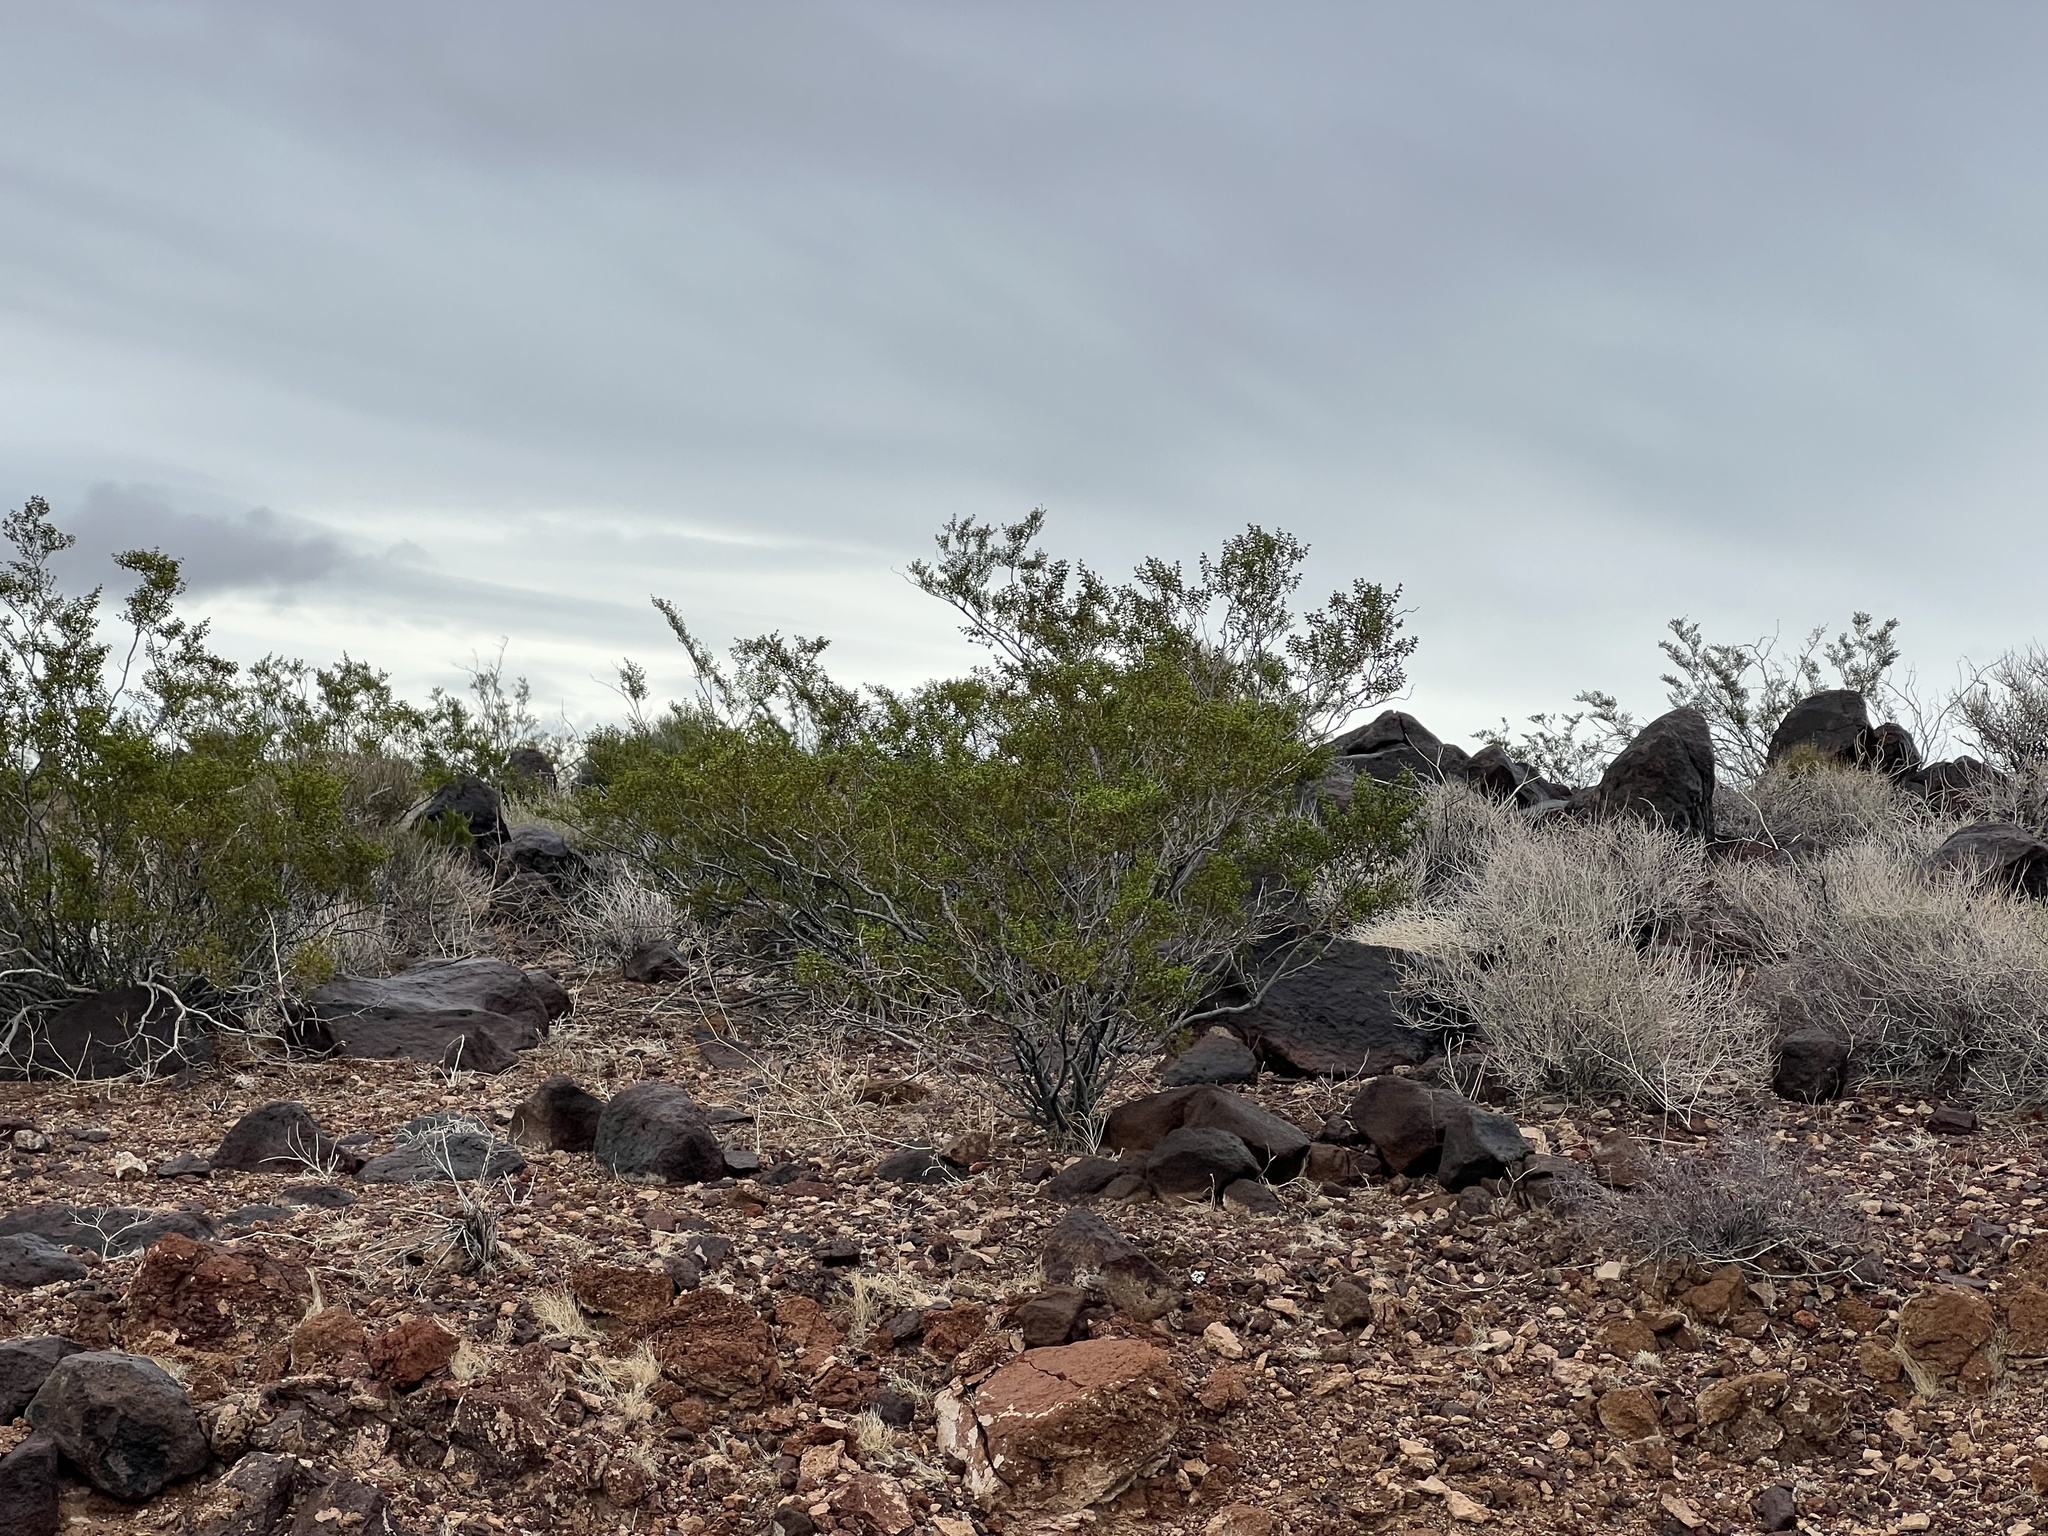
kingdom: Plantae
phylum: Tracheophyta
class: Magnoliopsida
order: Zygophyllales
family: Zygophyllaceae
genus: Larrea
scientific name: Larrea tridentata
